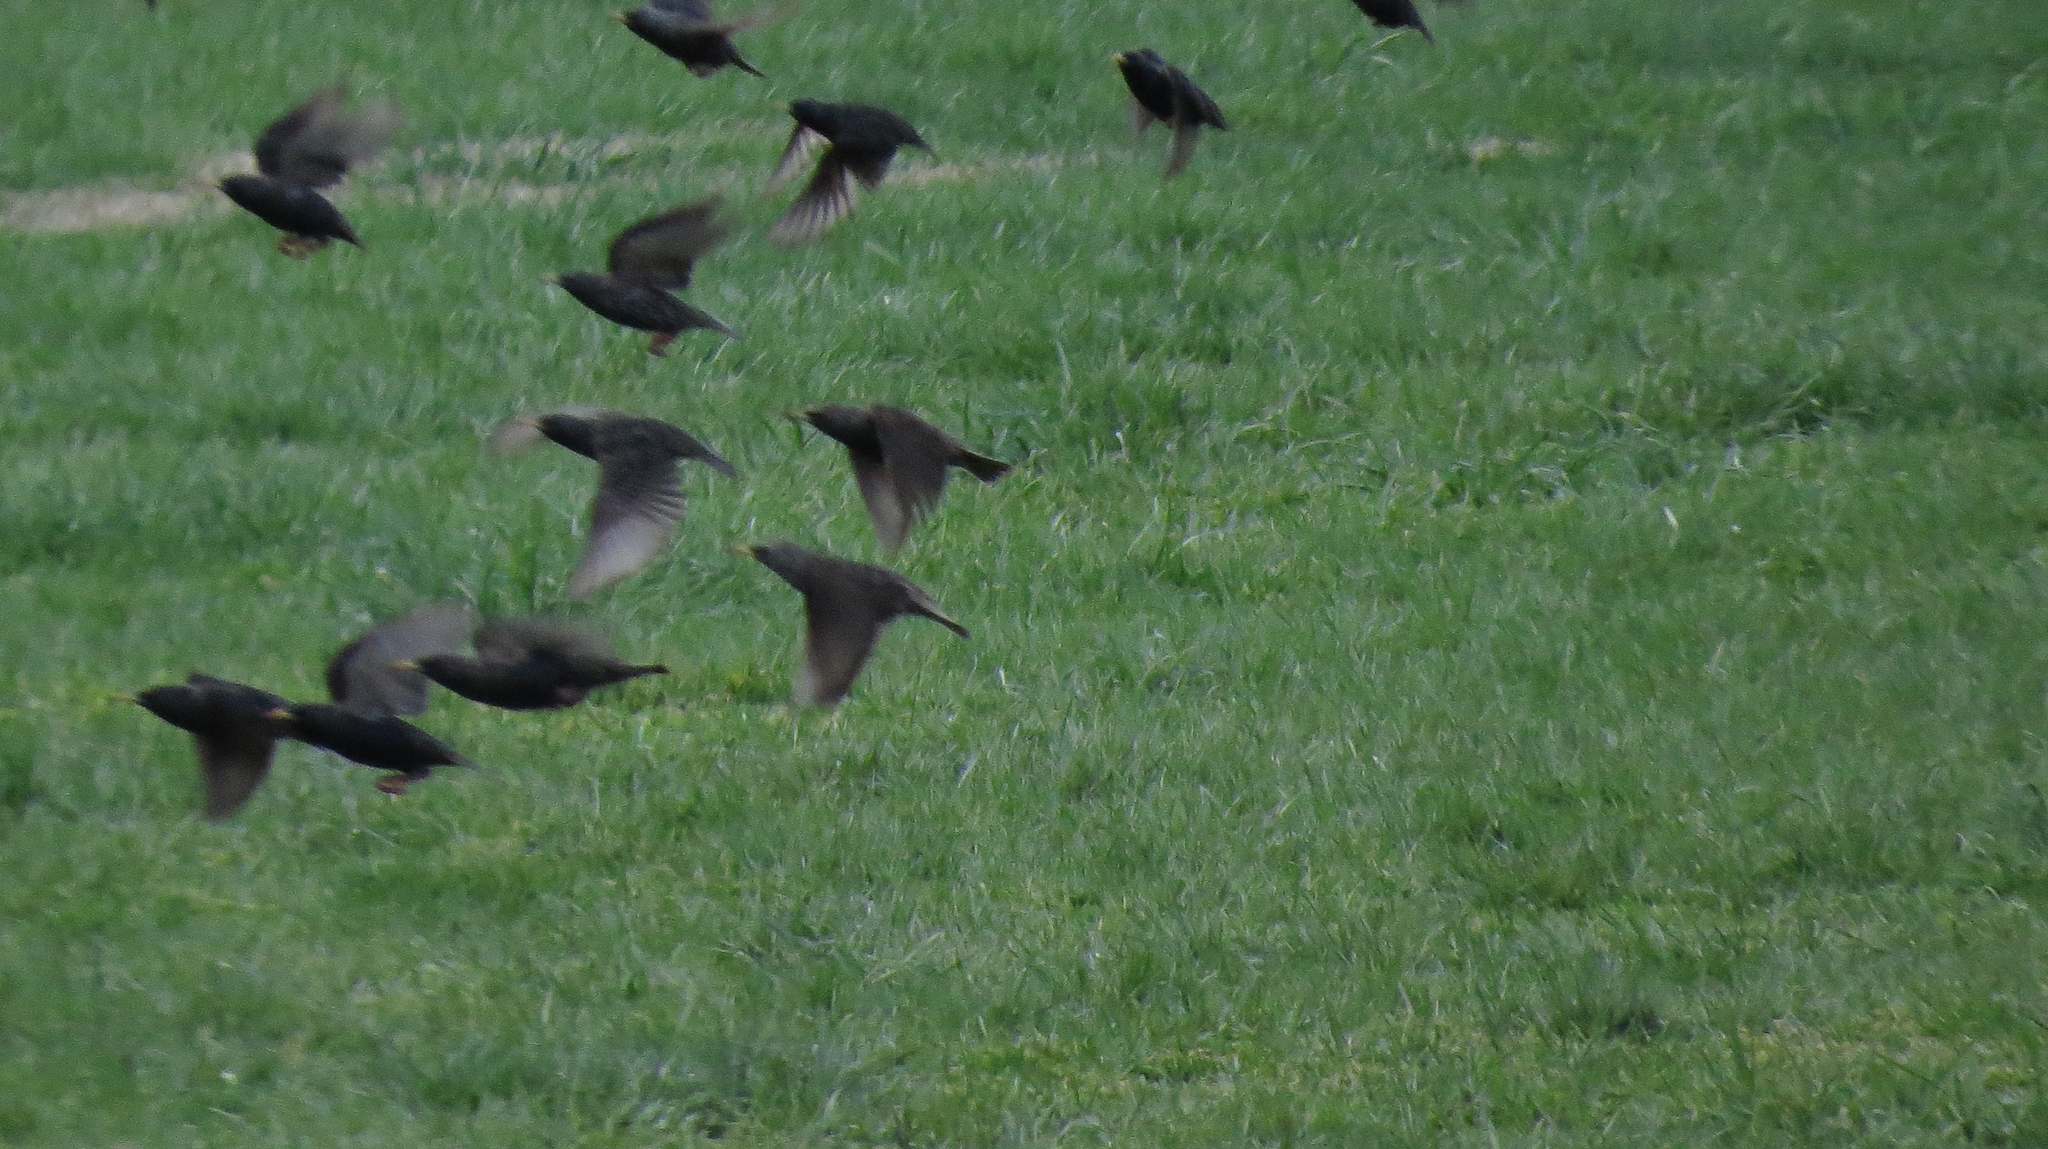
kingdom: Animalia
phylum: Chordata
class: Aves
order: Passeriformes
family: Sturnidae
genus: Sturnus
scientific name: Sturnus vulgaris
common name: Common starling
